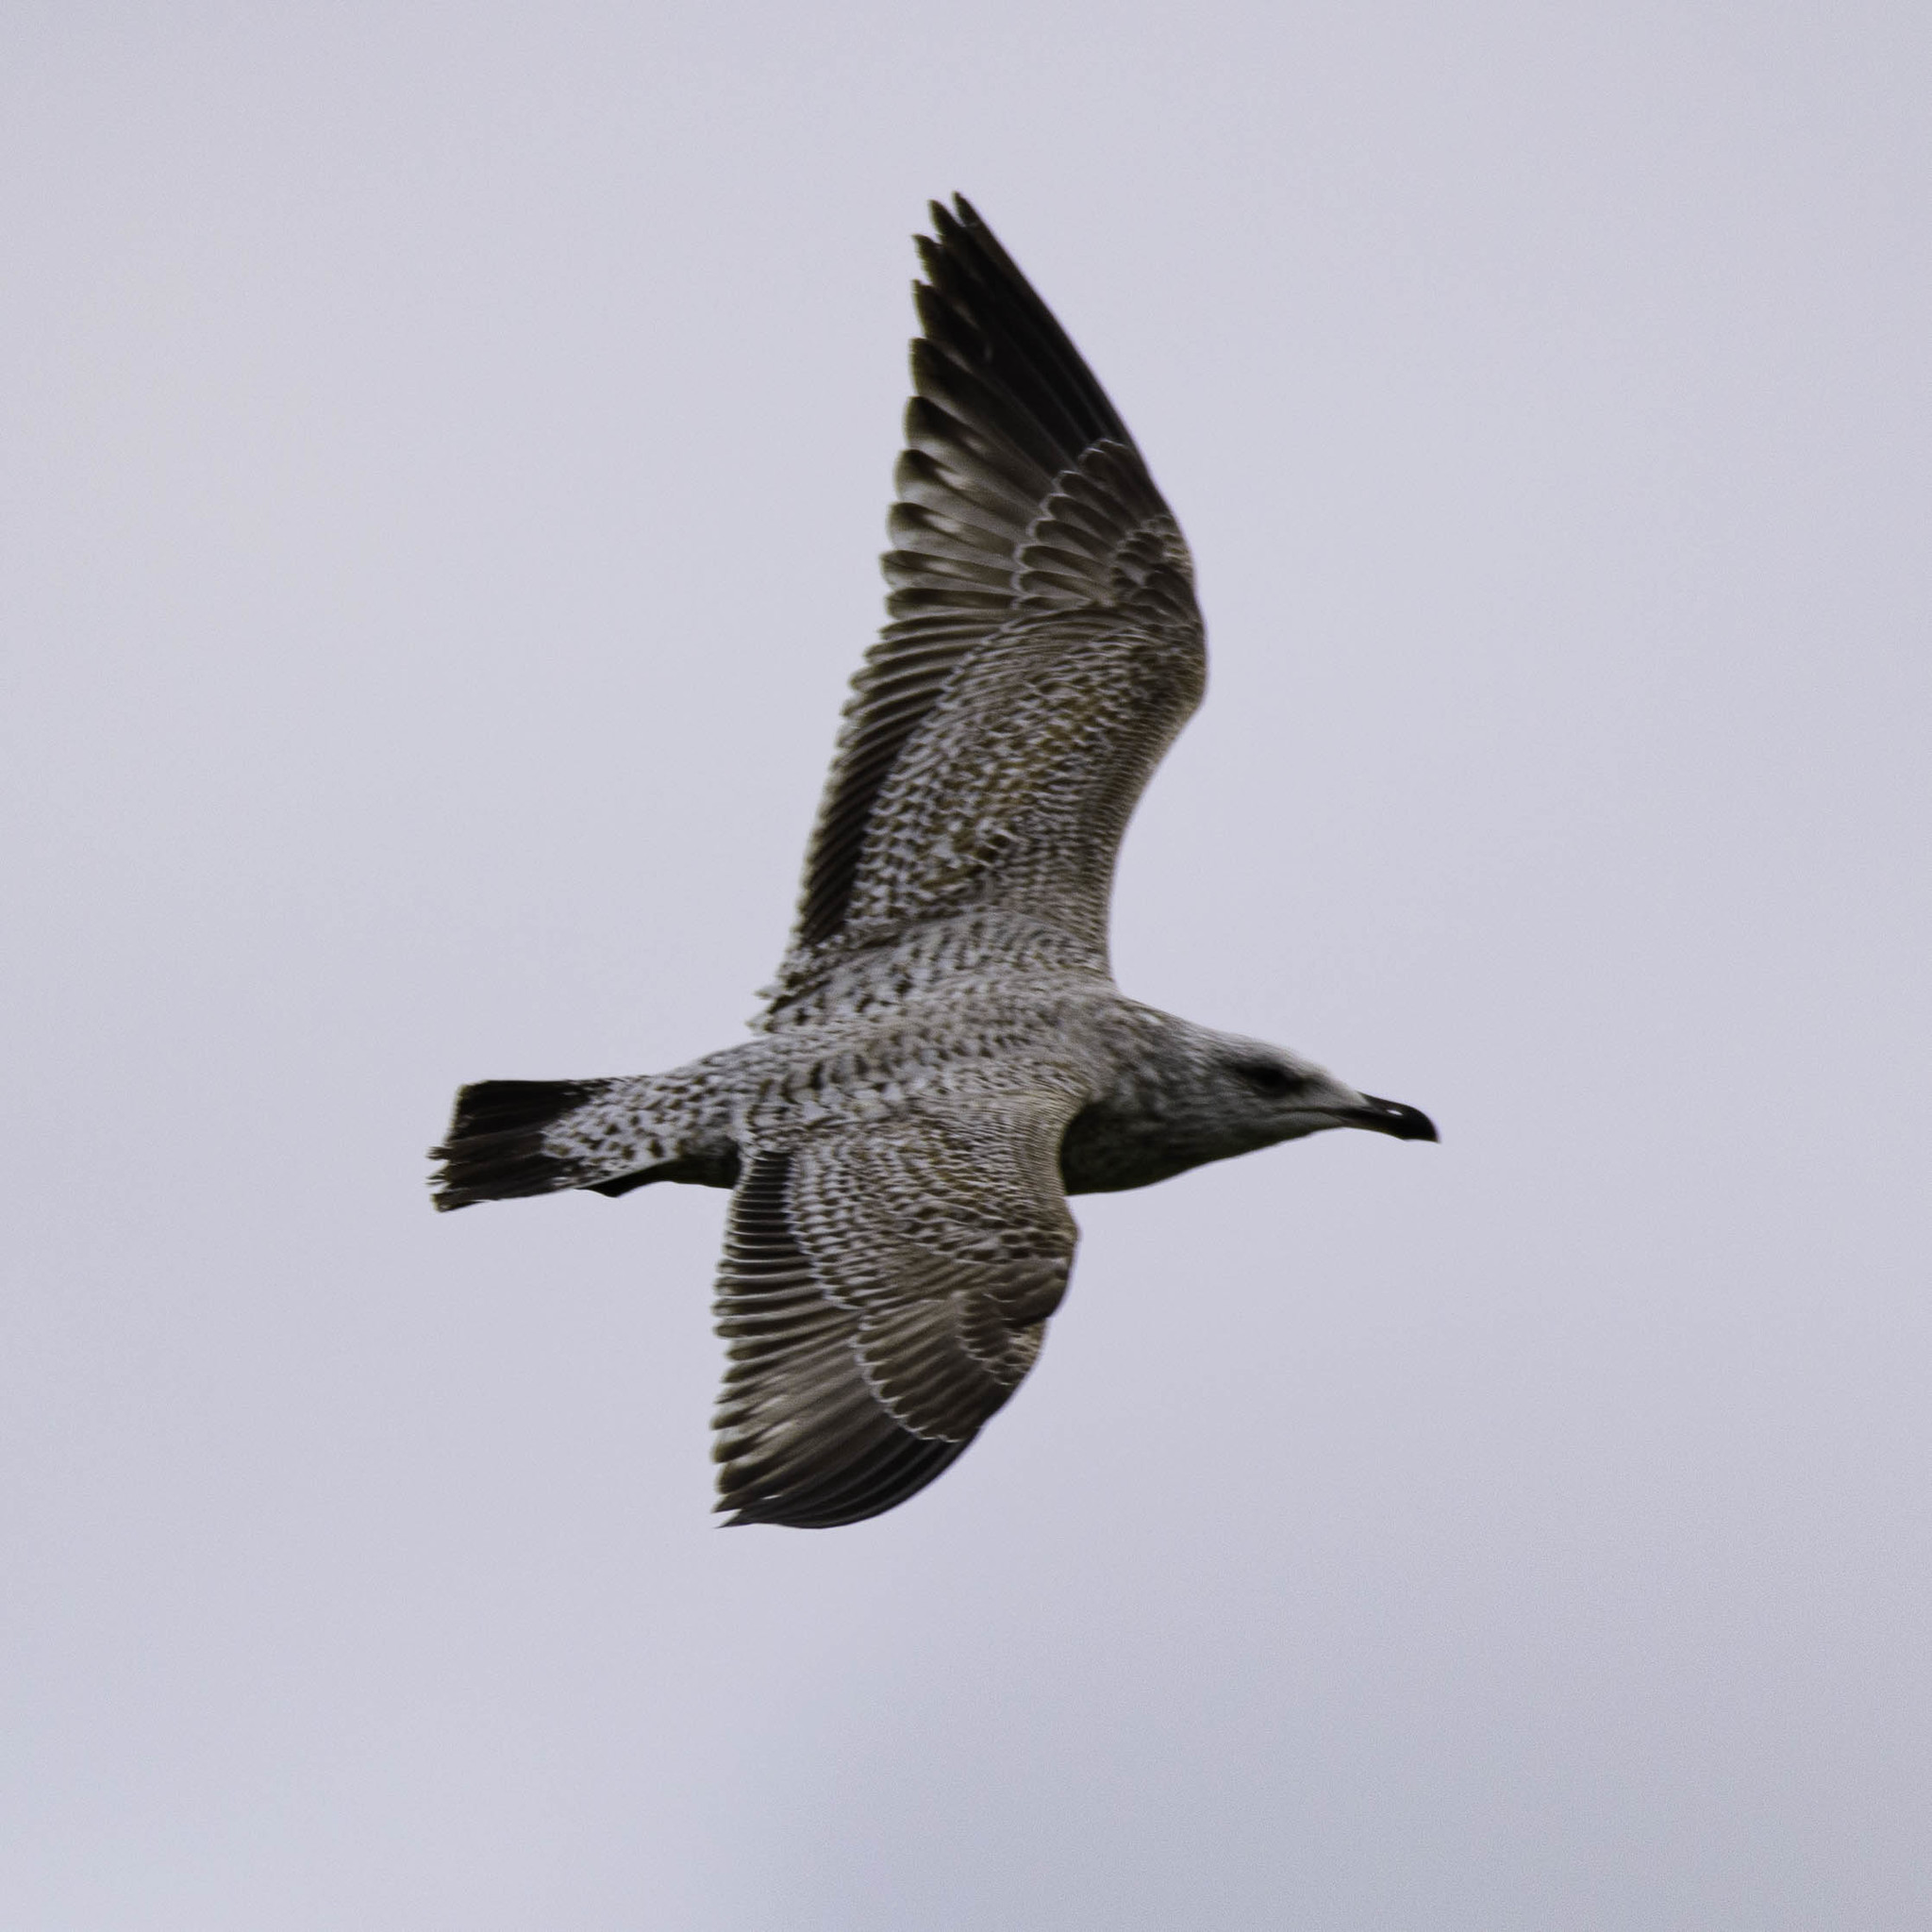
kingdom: Animalia
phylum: Chordata
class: Aves
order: Charadriiformes
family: Laridae
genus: Larus
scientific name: Larus argentatus
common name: Herring gull
